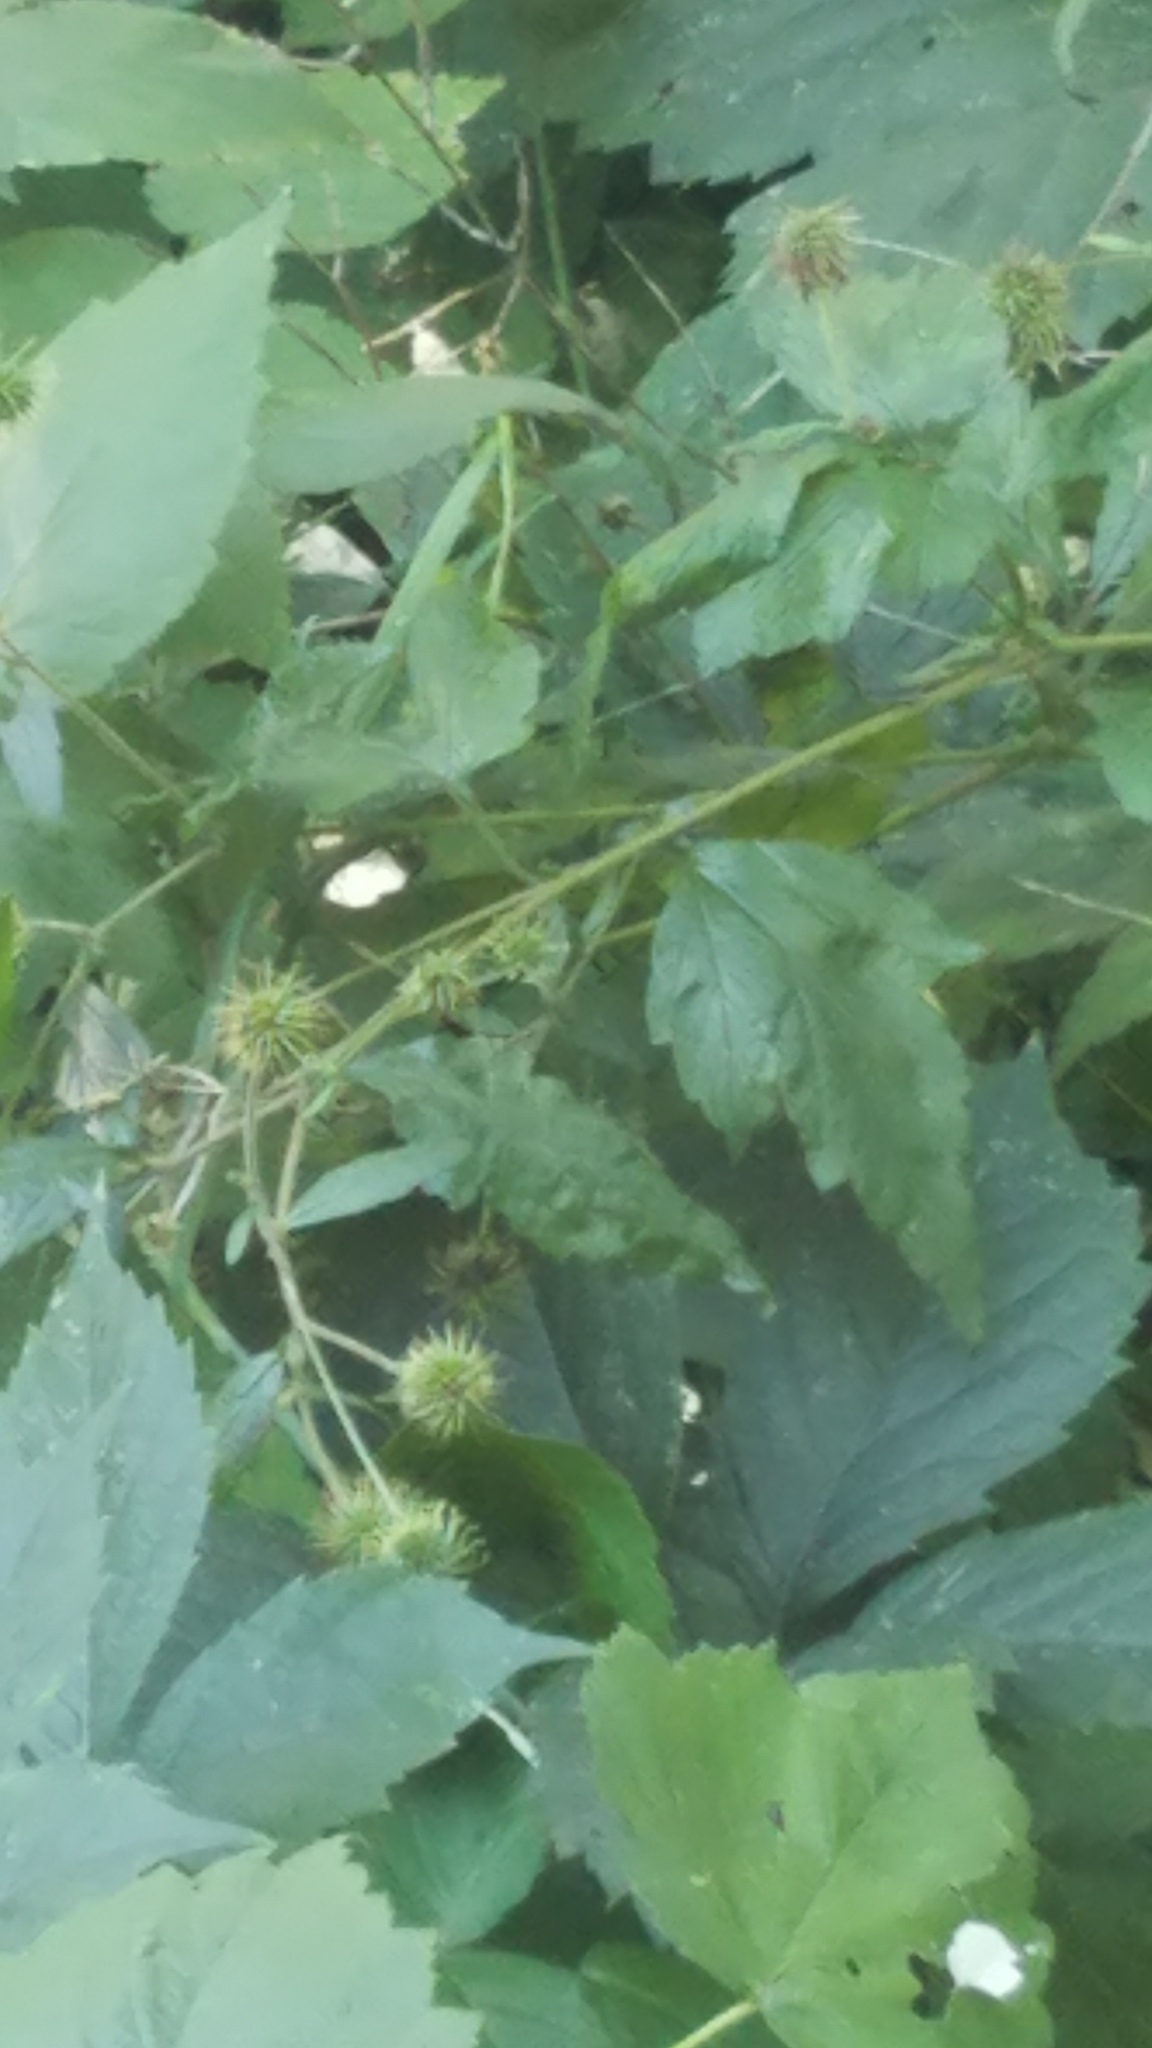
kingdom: Plantae
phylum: Tracheophyta
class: Magnoliopsida
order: Rosales
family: Rosaceae
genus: Geum
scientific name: Geum canadense
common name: White avens
